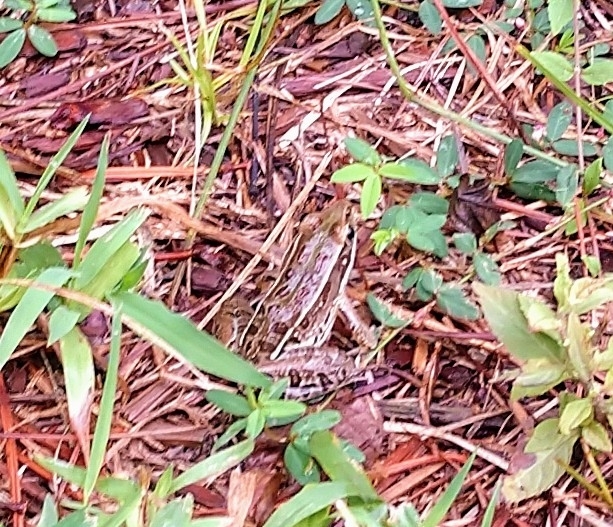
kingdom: Animalia
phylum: Chordata
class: Amphibia
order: Anura
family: Ranidae
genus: Lithobates
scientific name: Lithobates sphenocephalus
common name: Southern leopard frog
